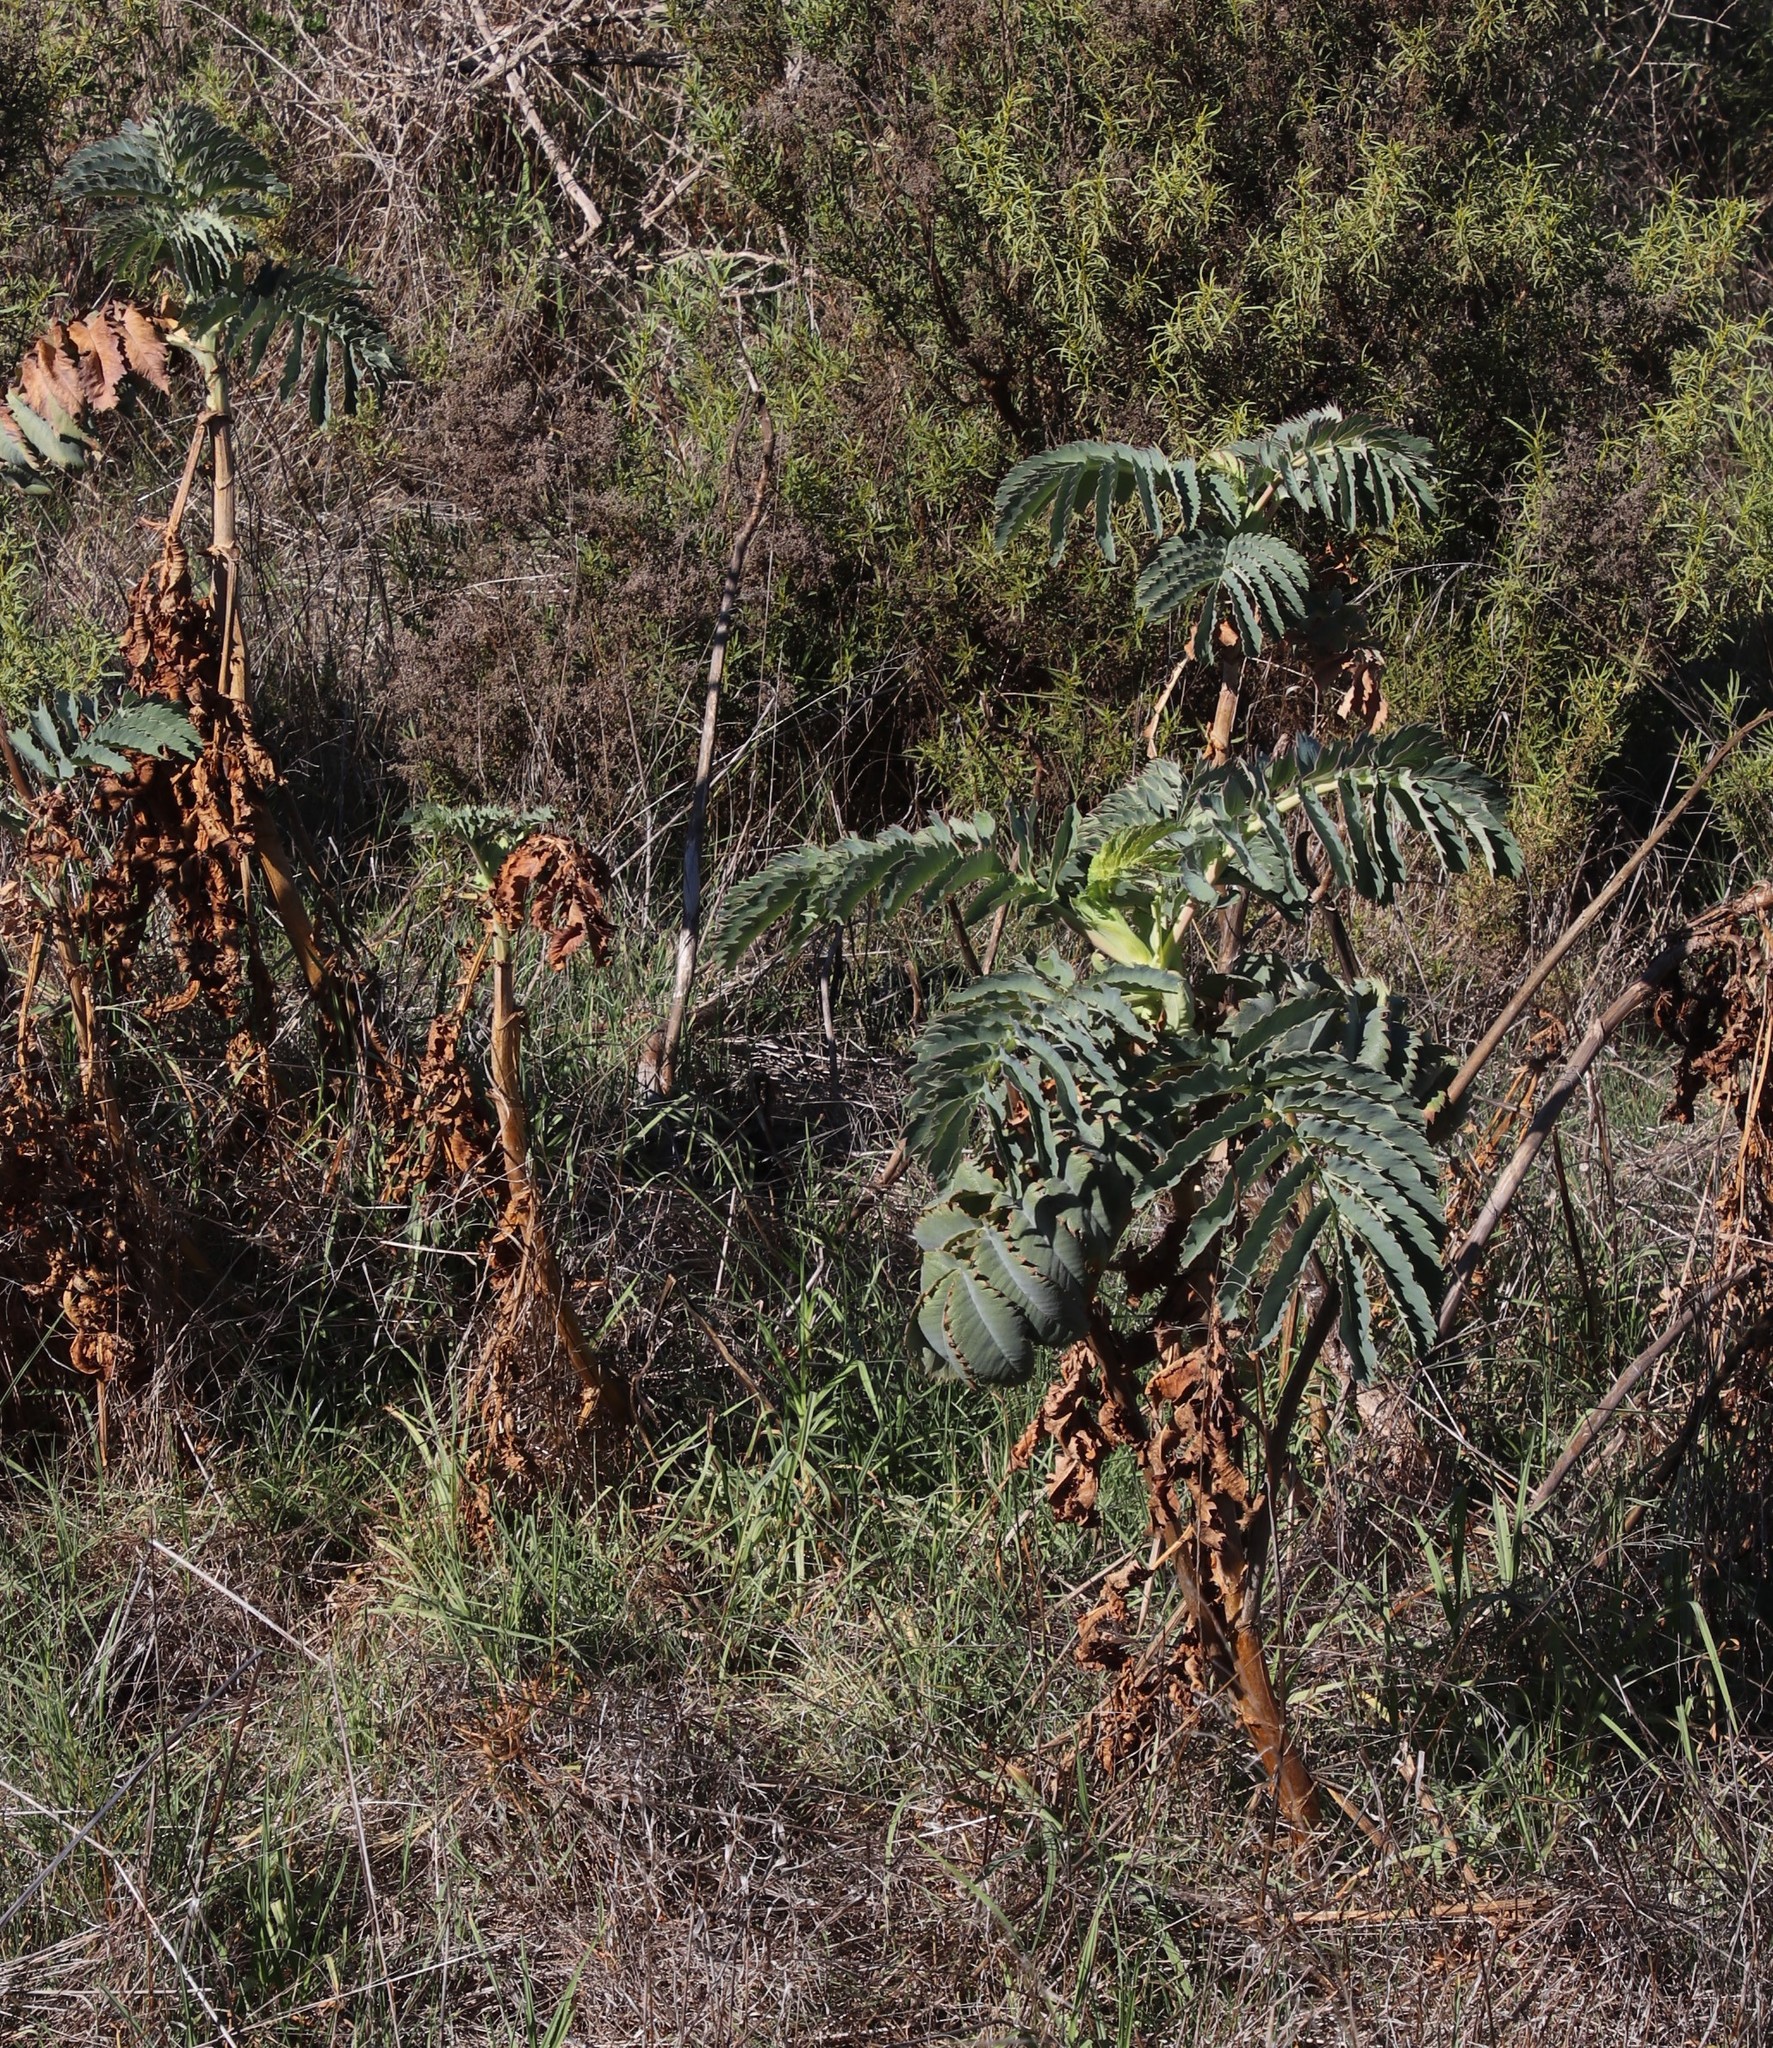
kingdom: Plantae
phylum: Tracheophyta
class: Magnoliopsida
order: Geraniales
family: Melianthaceae
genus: Melianthus
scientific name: Melianthus major
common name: Honey-flower
